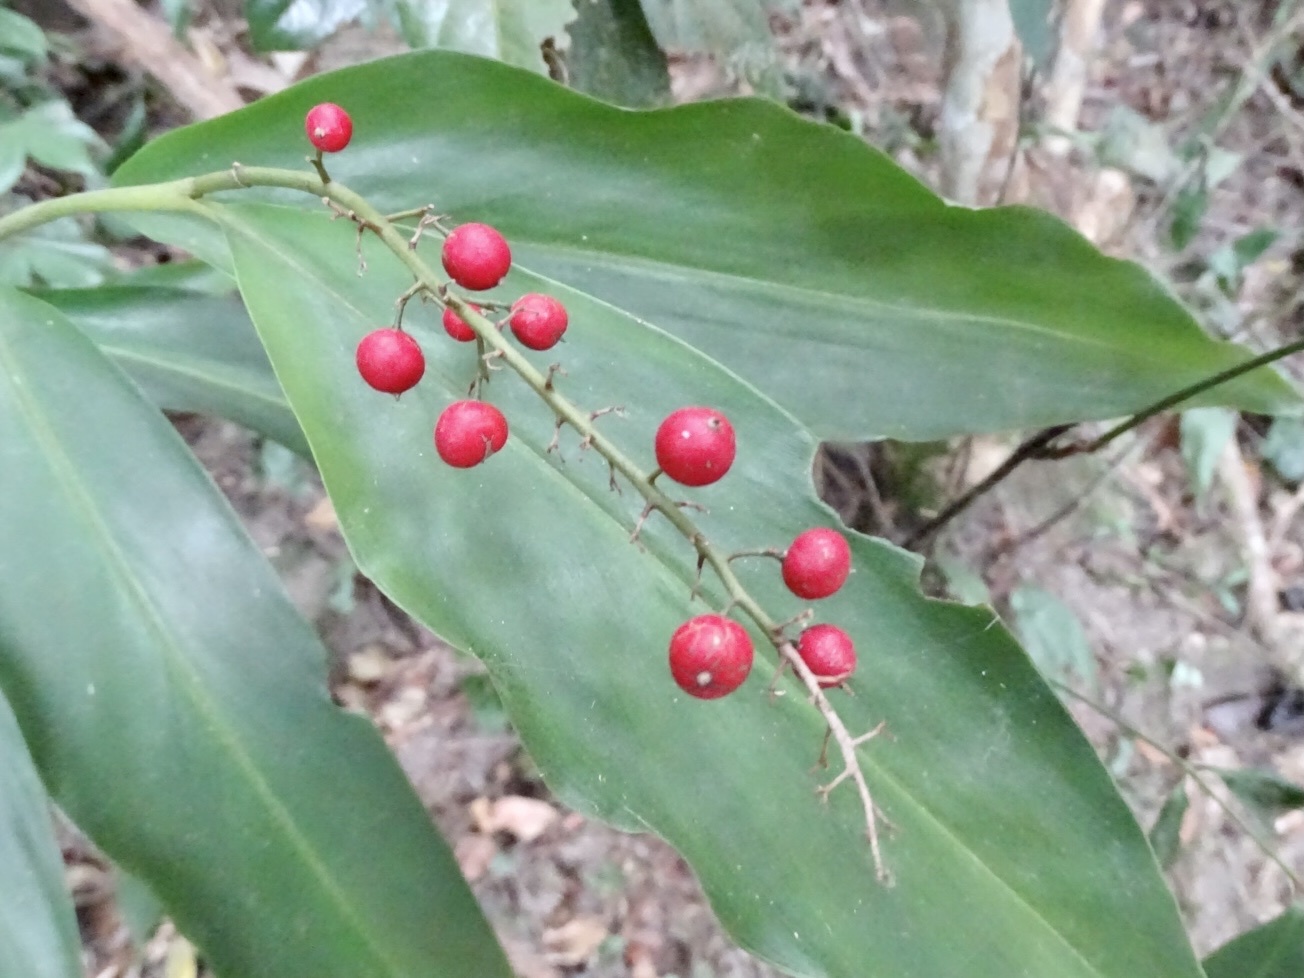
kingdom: Plantae
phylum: Tracheophyta
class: Liliopsida
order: Zingiberales
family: Zingiberaceae
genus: Alpinia
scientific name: Alpinia oblongifolia
